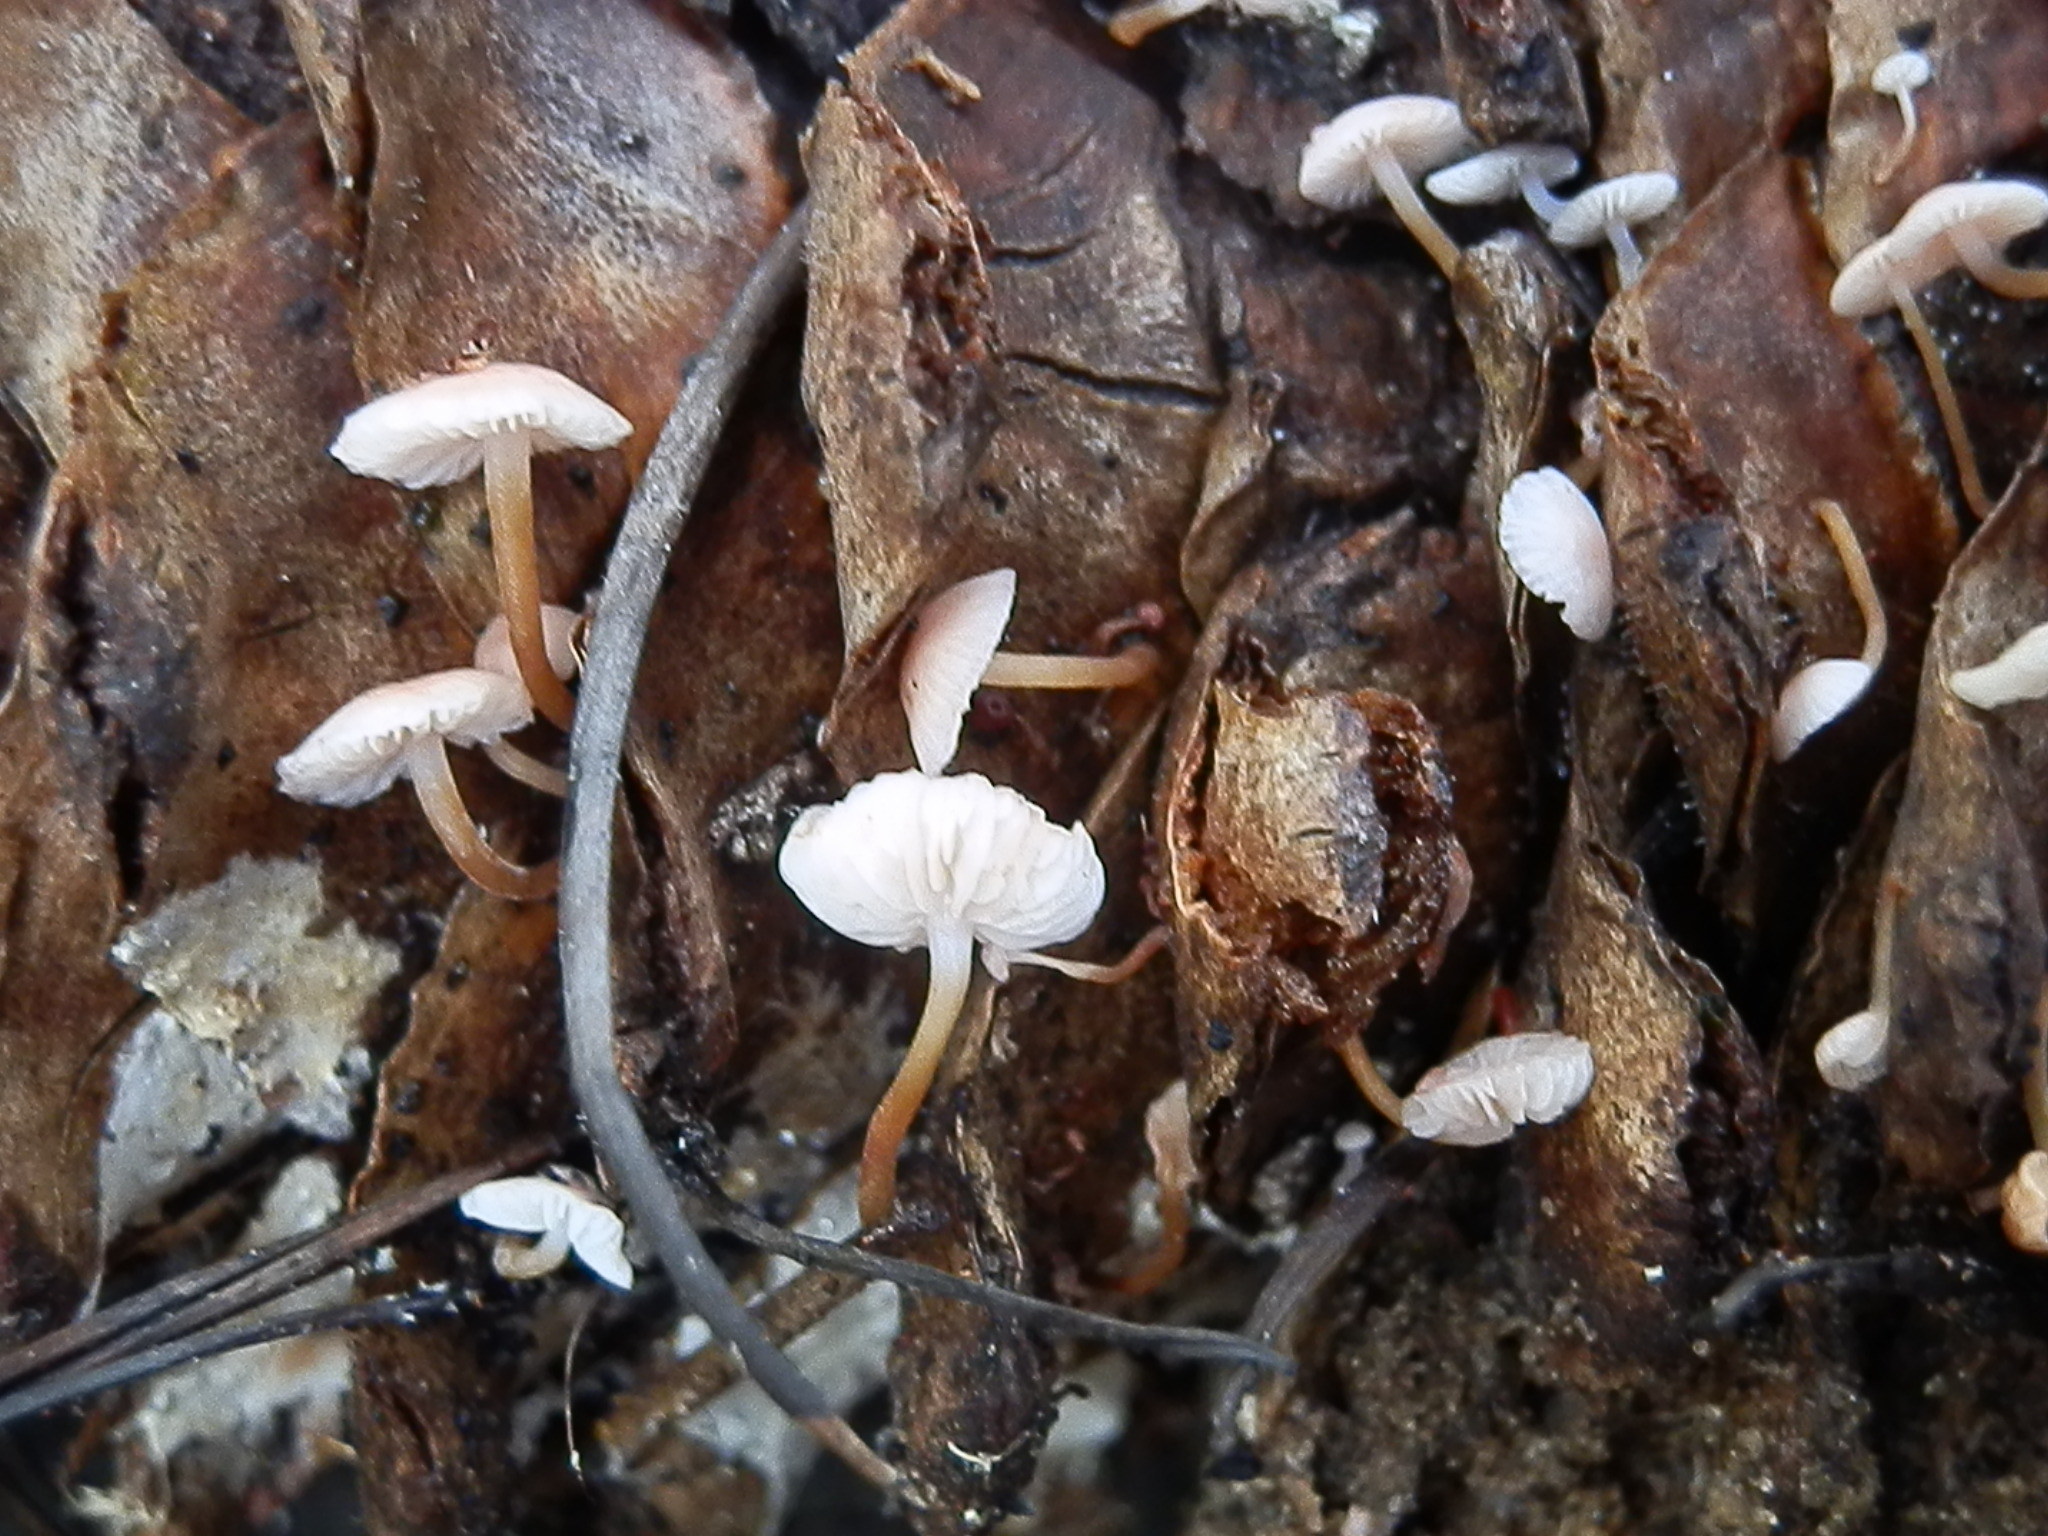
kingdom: Fungi
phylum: Basidiomycota
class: Agaricomycetes
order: Agaricales
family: Physalacriaceae
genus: Strobilurus
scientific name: Strobilurus trullisatus
